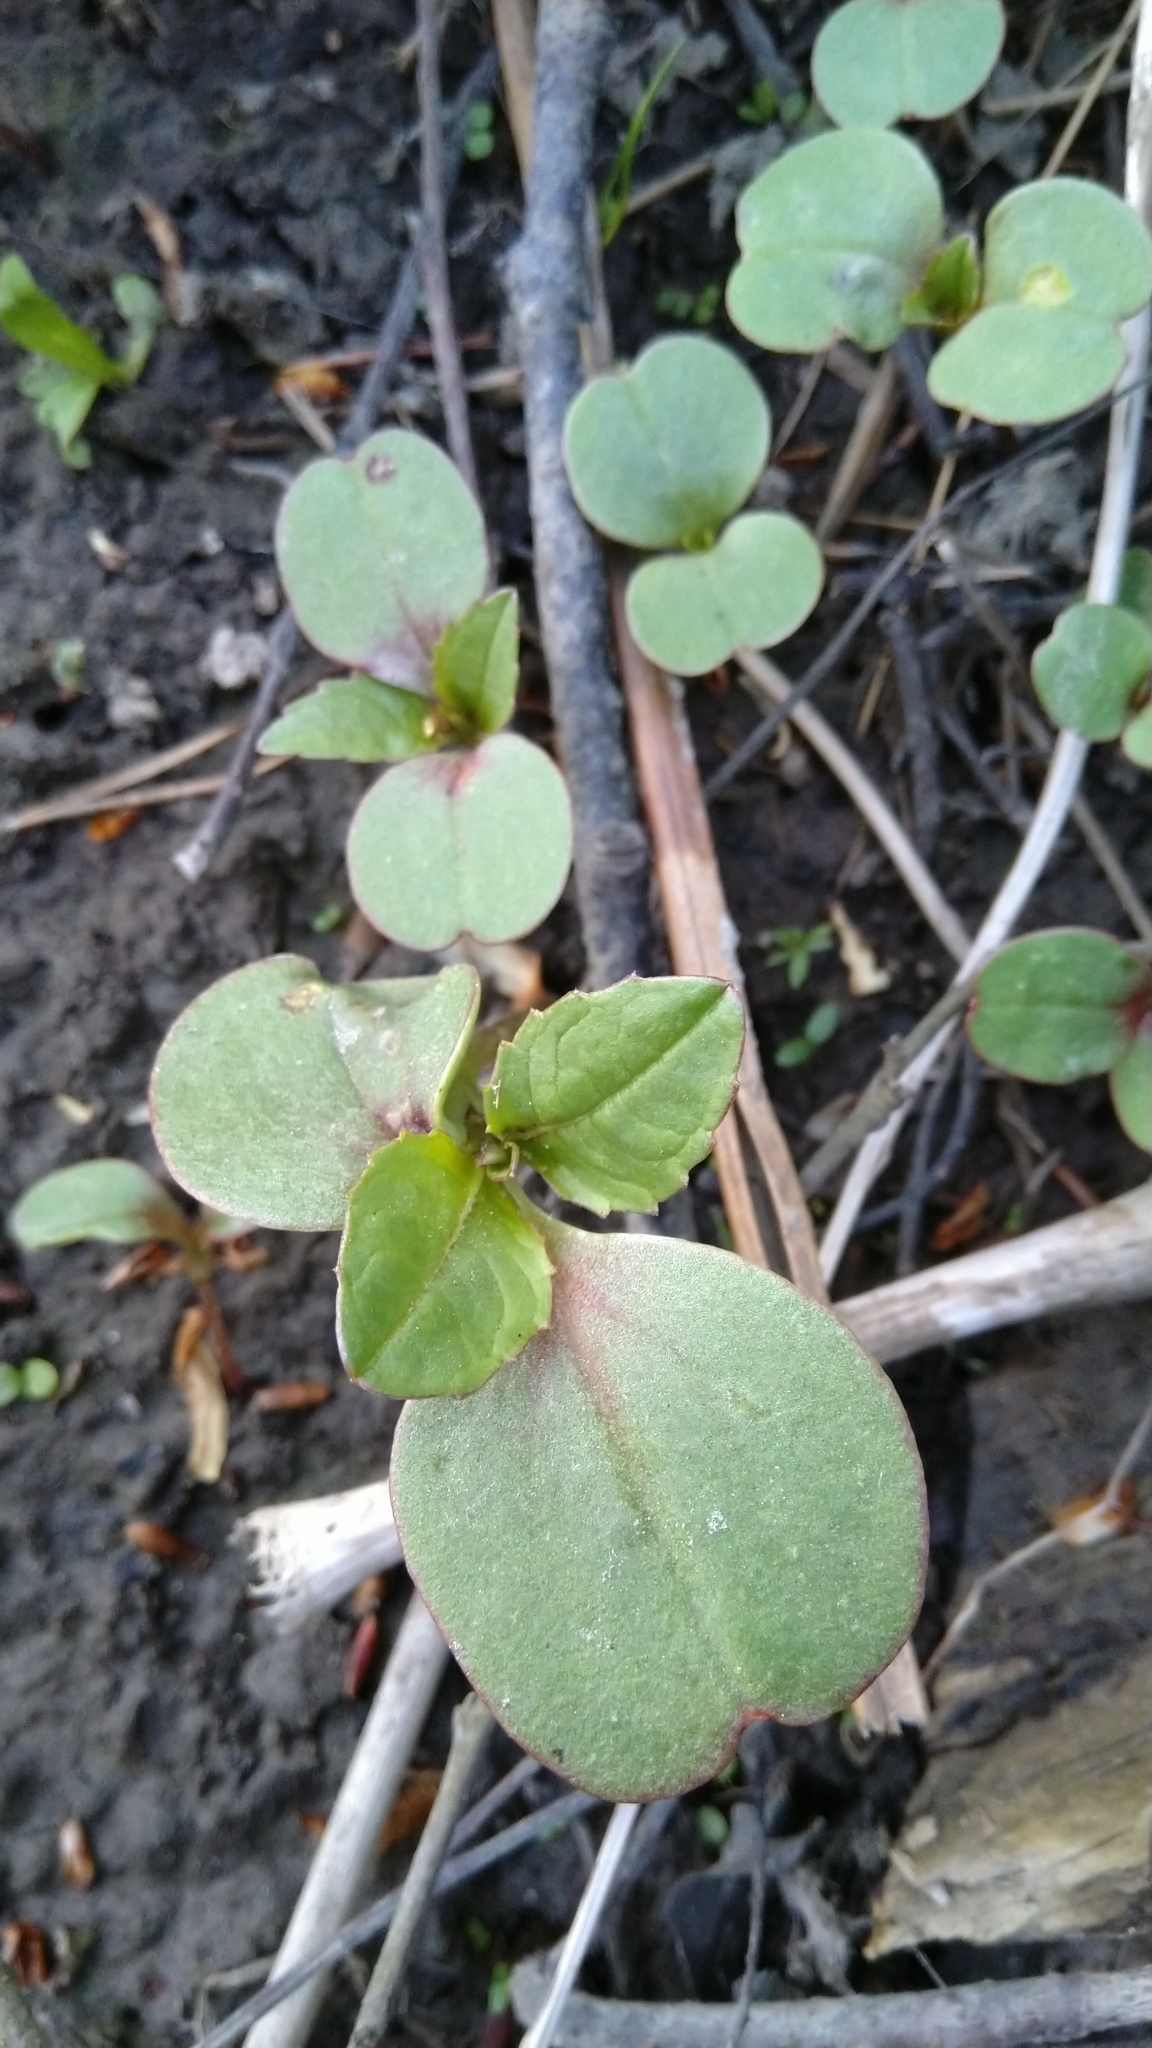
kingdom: Plantae
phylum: Tracheophyta
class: Magnoliopsida
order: Ericales
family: Balsaminaceae
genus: Impatiens
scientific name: Impatiens glandulifera
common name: Himalayan balsam
